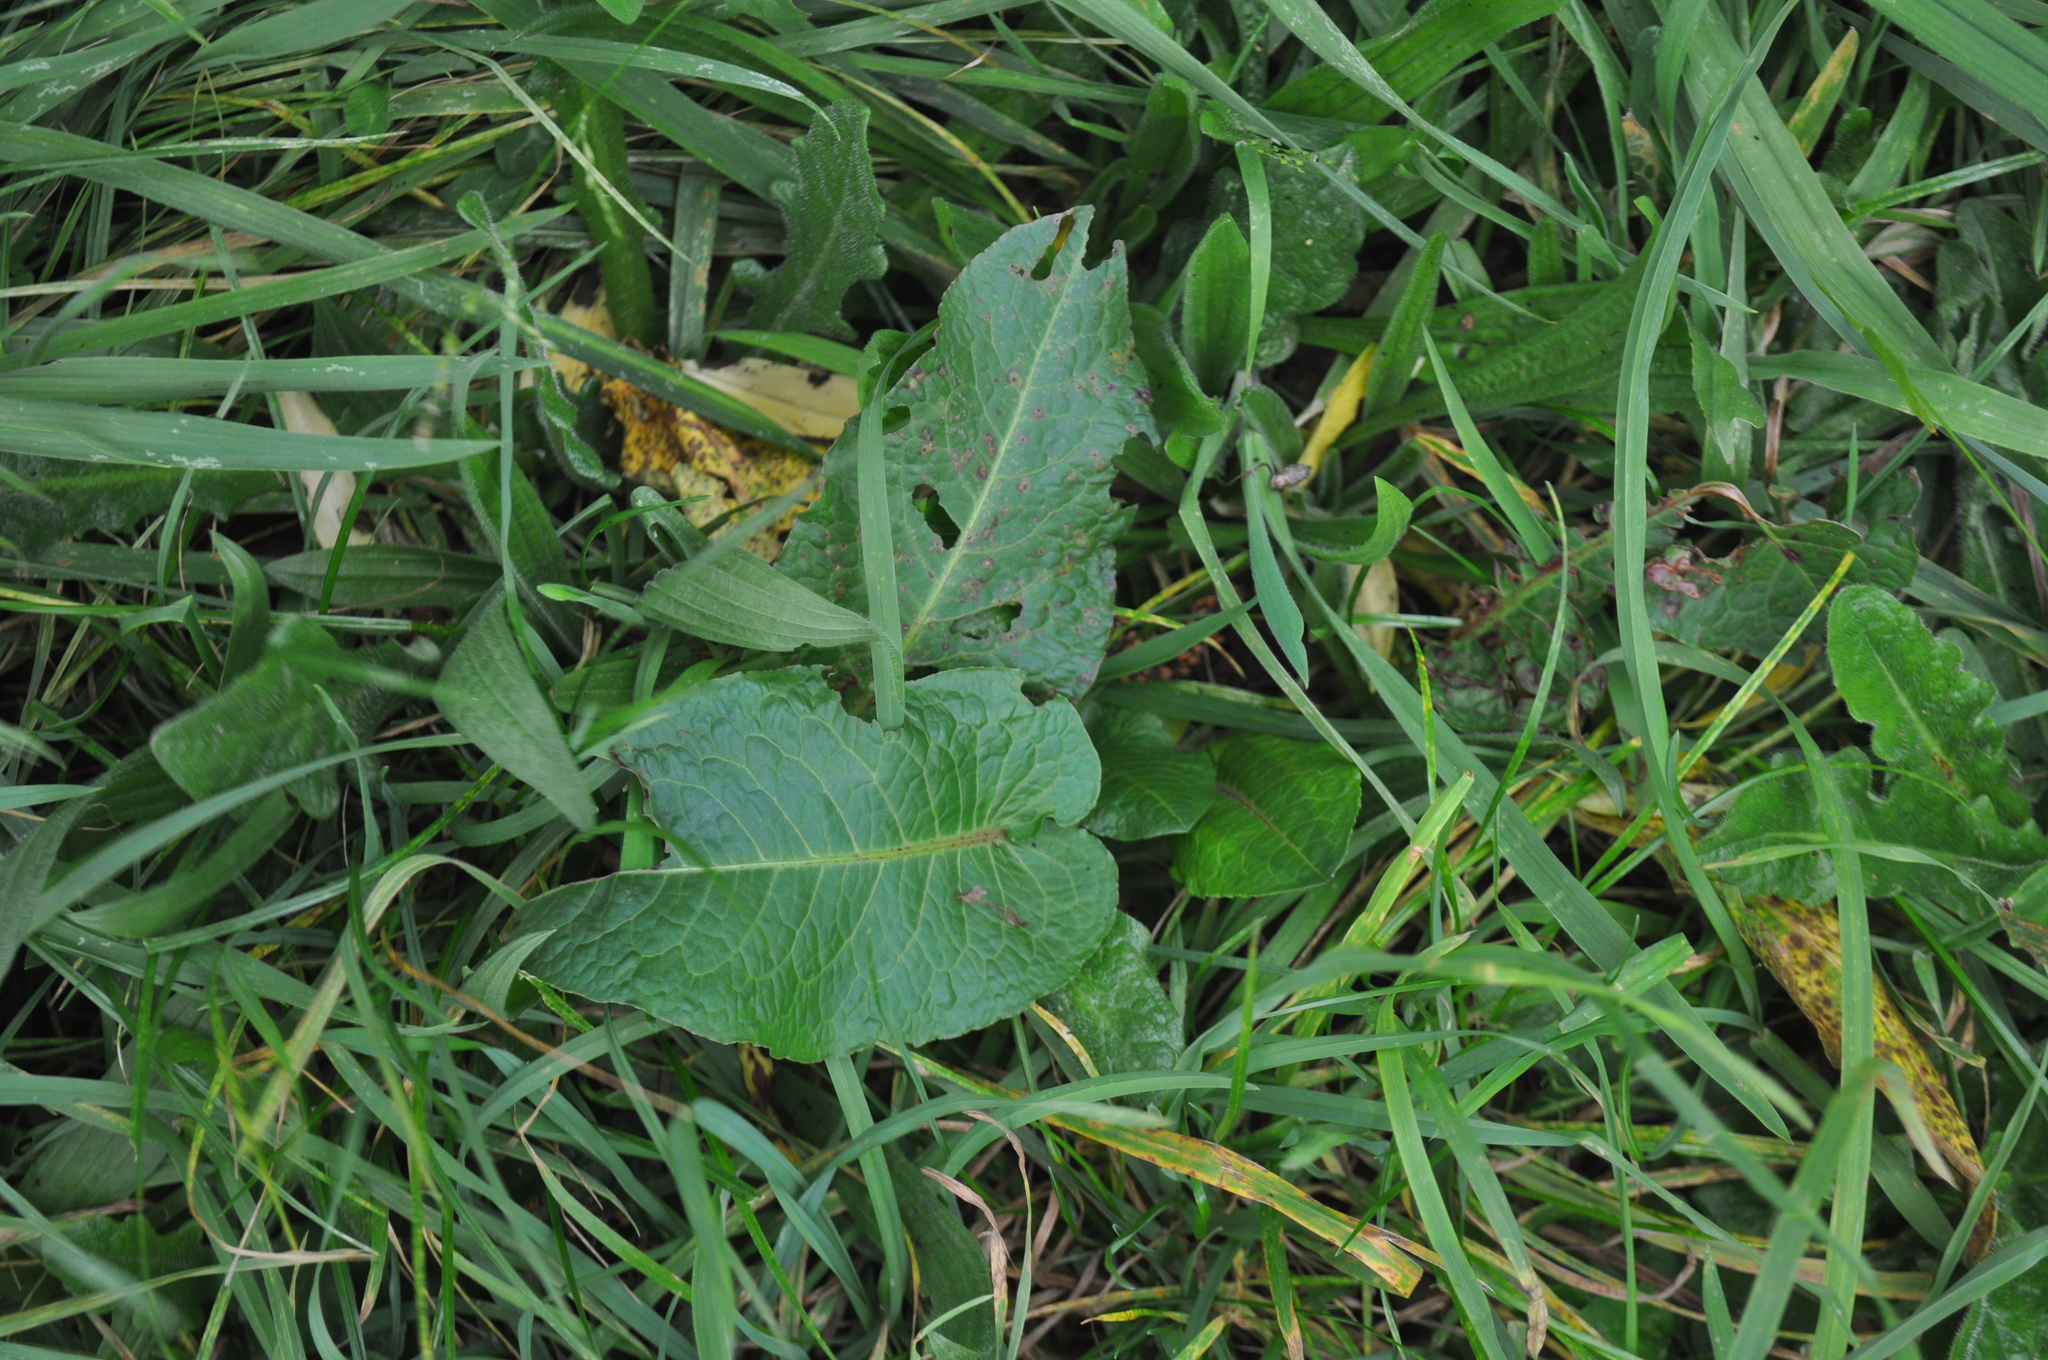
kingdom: Plantae
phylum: Tracheophyta
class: Magnoliopsida
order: Caryophyllales
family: Polygonaceae
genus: Rumex
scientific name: Rumex obtusifolius
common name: Bitter dock
